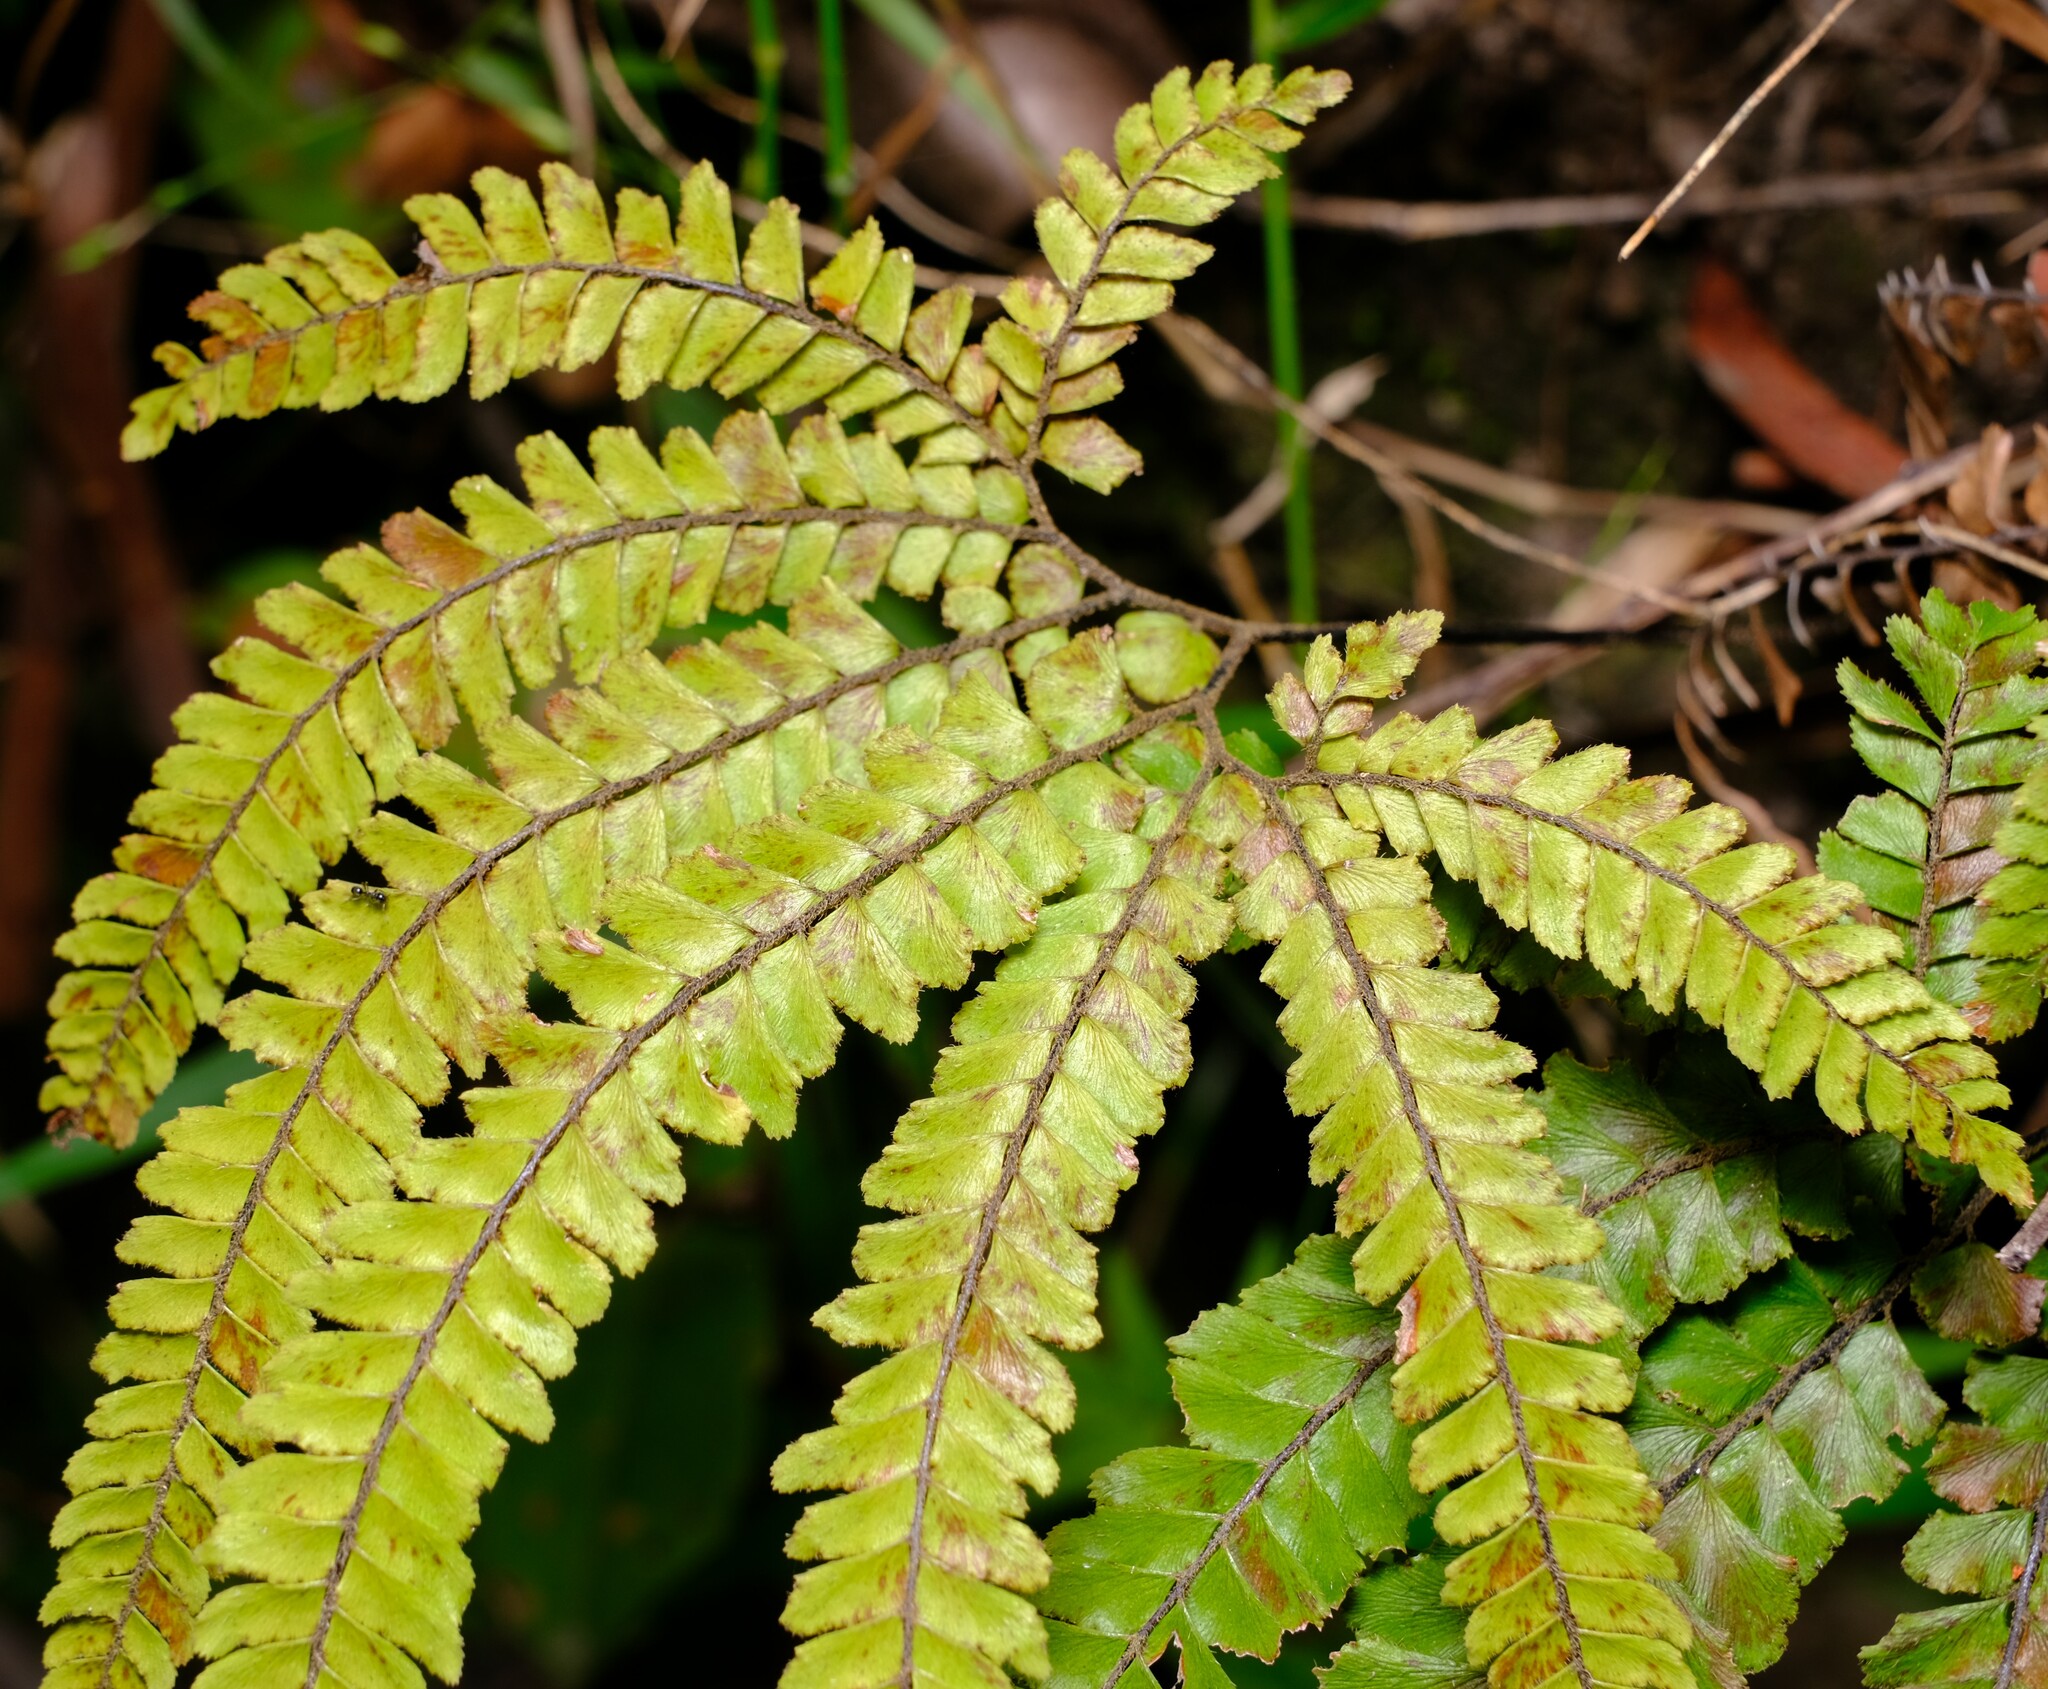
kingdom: Plantae
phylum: Tracheophyta
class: Polypodiopsida
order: Polypodiales
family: Pteridaceae
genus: Adiantum
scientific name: Adiantum hispidulum
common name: Rough maidenhair
